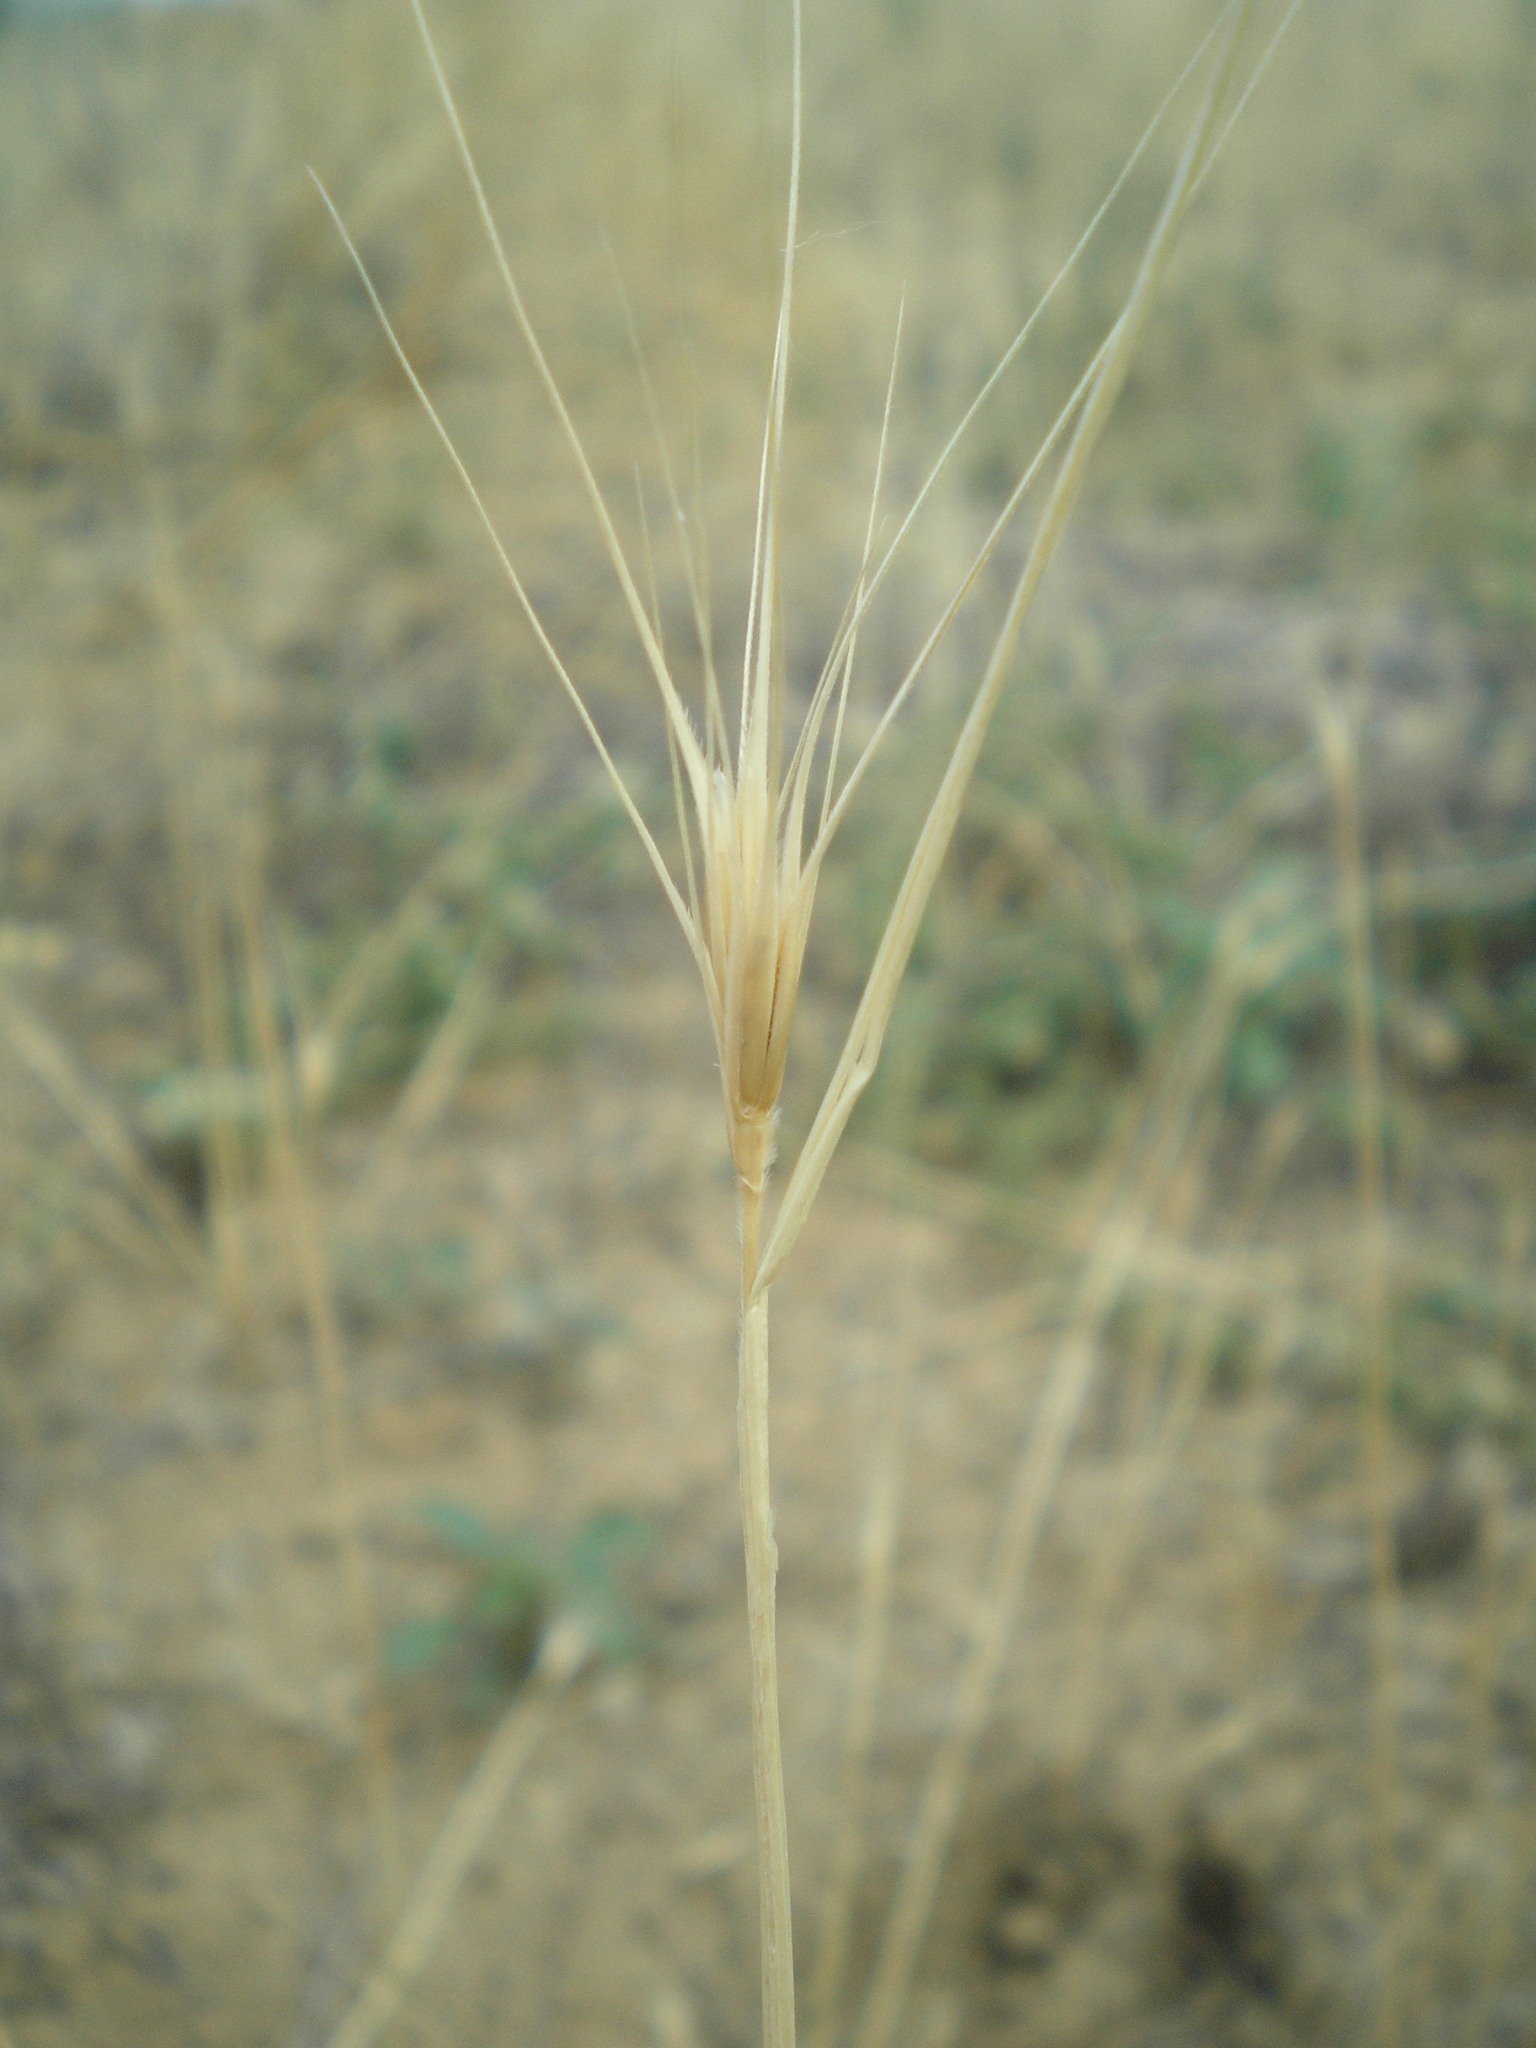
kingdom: Plantae
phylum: Tracheophyta
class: Liliopsida
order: Poales
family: Poaceae
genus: Secale
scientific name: Secale sylvestre
